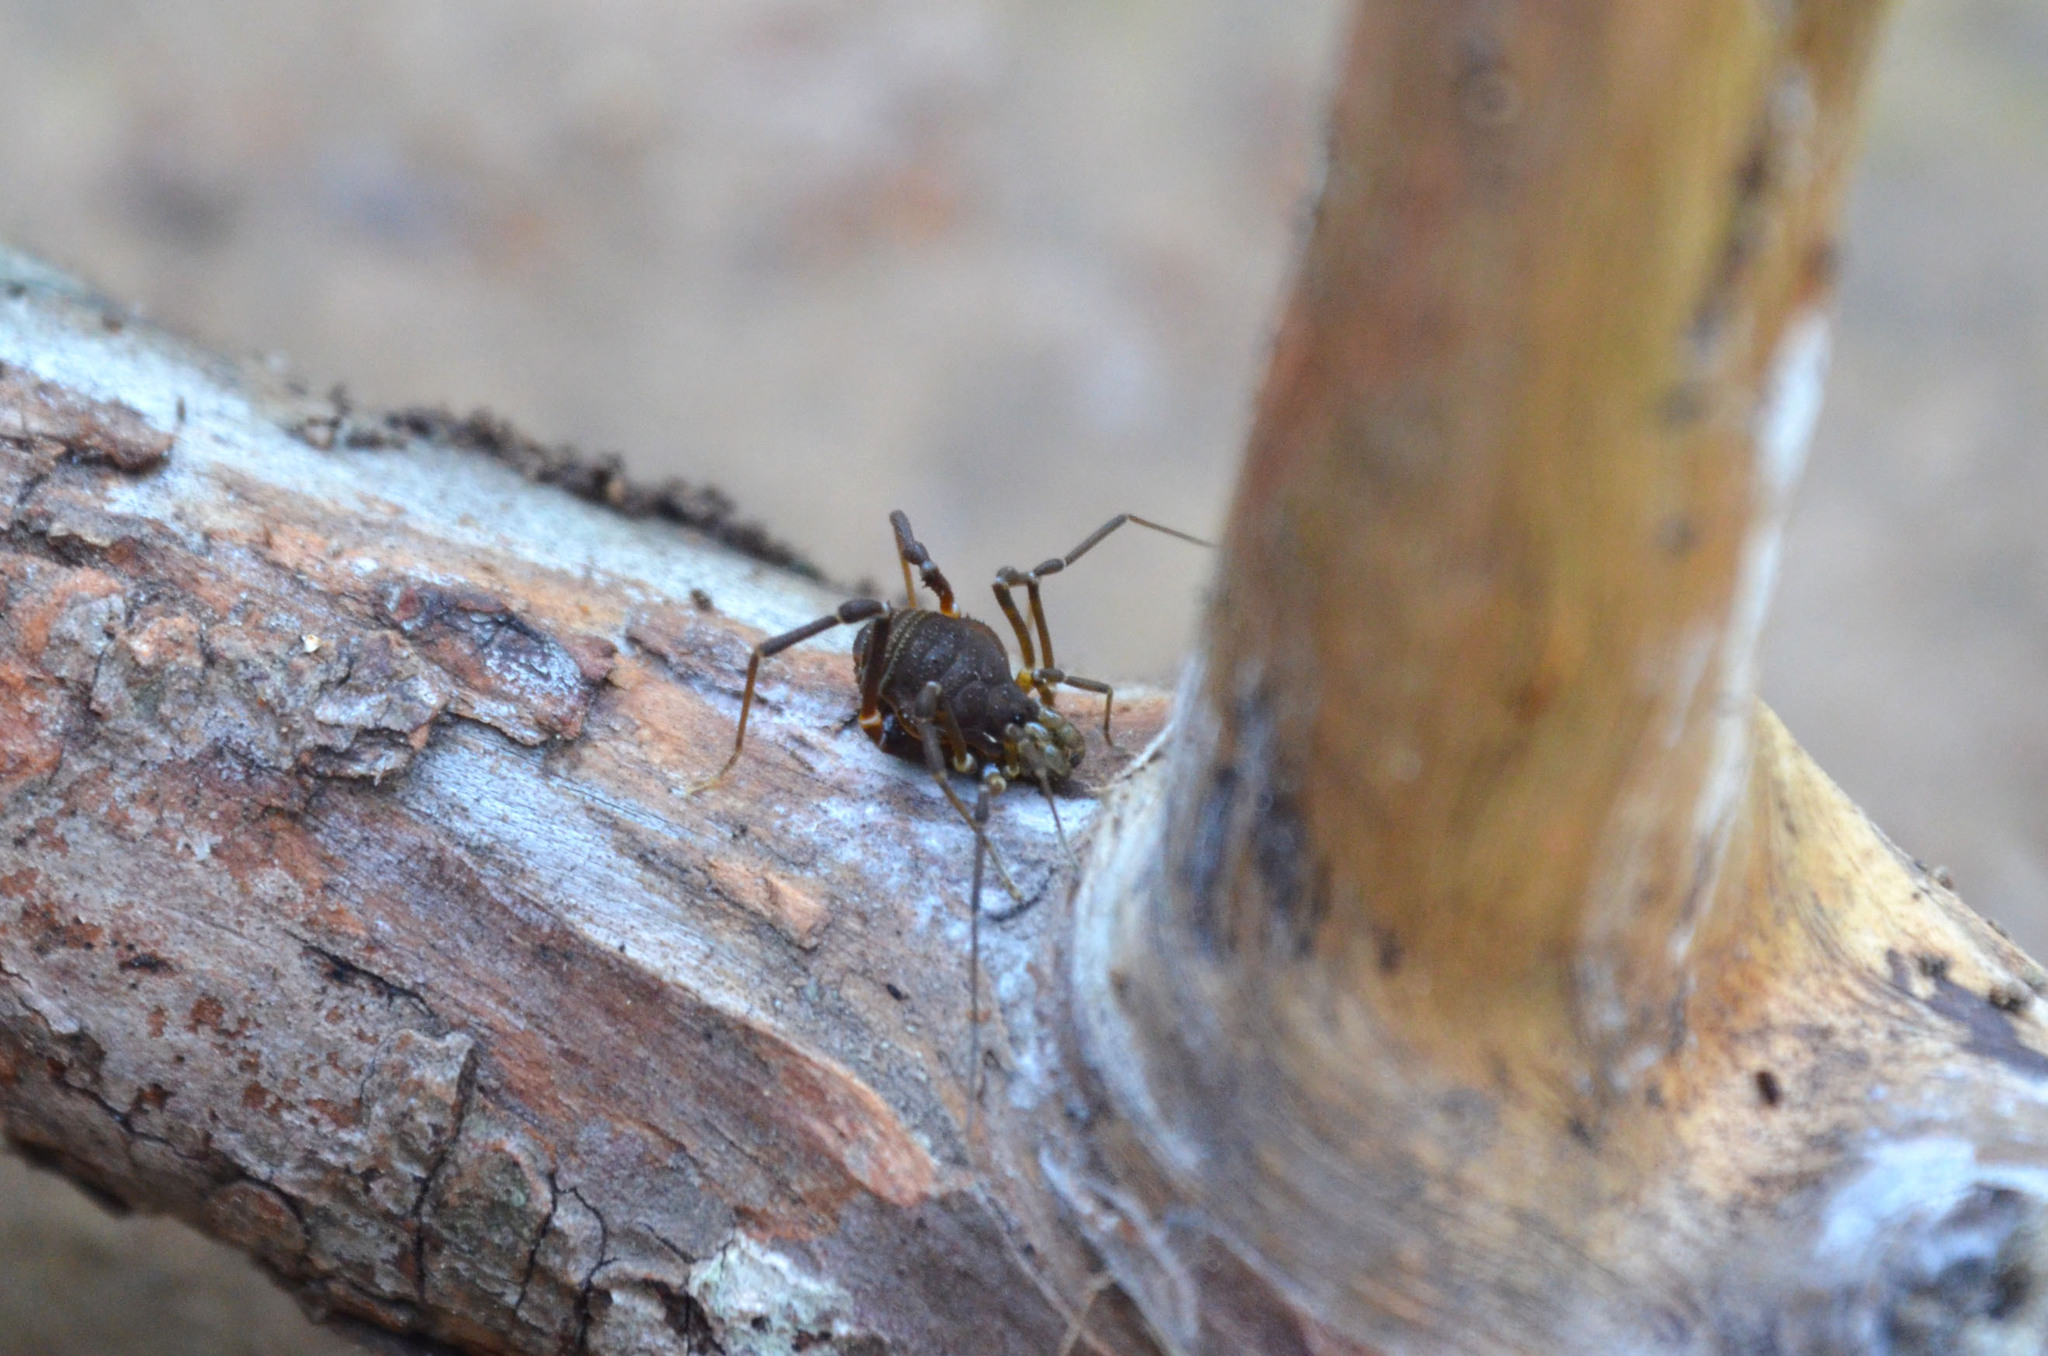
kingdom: Animalia
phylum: Arthropoda
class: Arachnida
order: Opiliones
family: Gonyleptidae
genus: Acanthopachylus
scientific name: Acanthopachylus robustus
